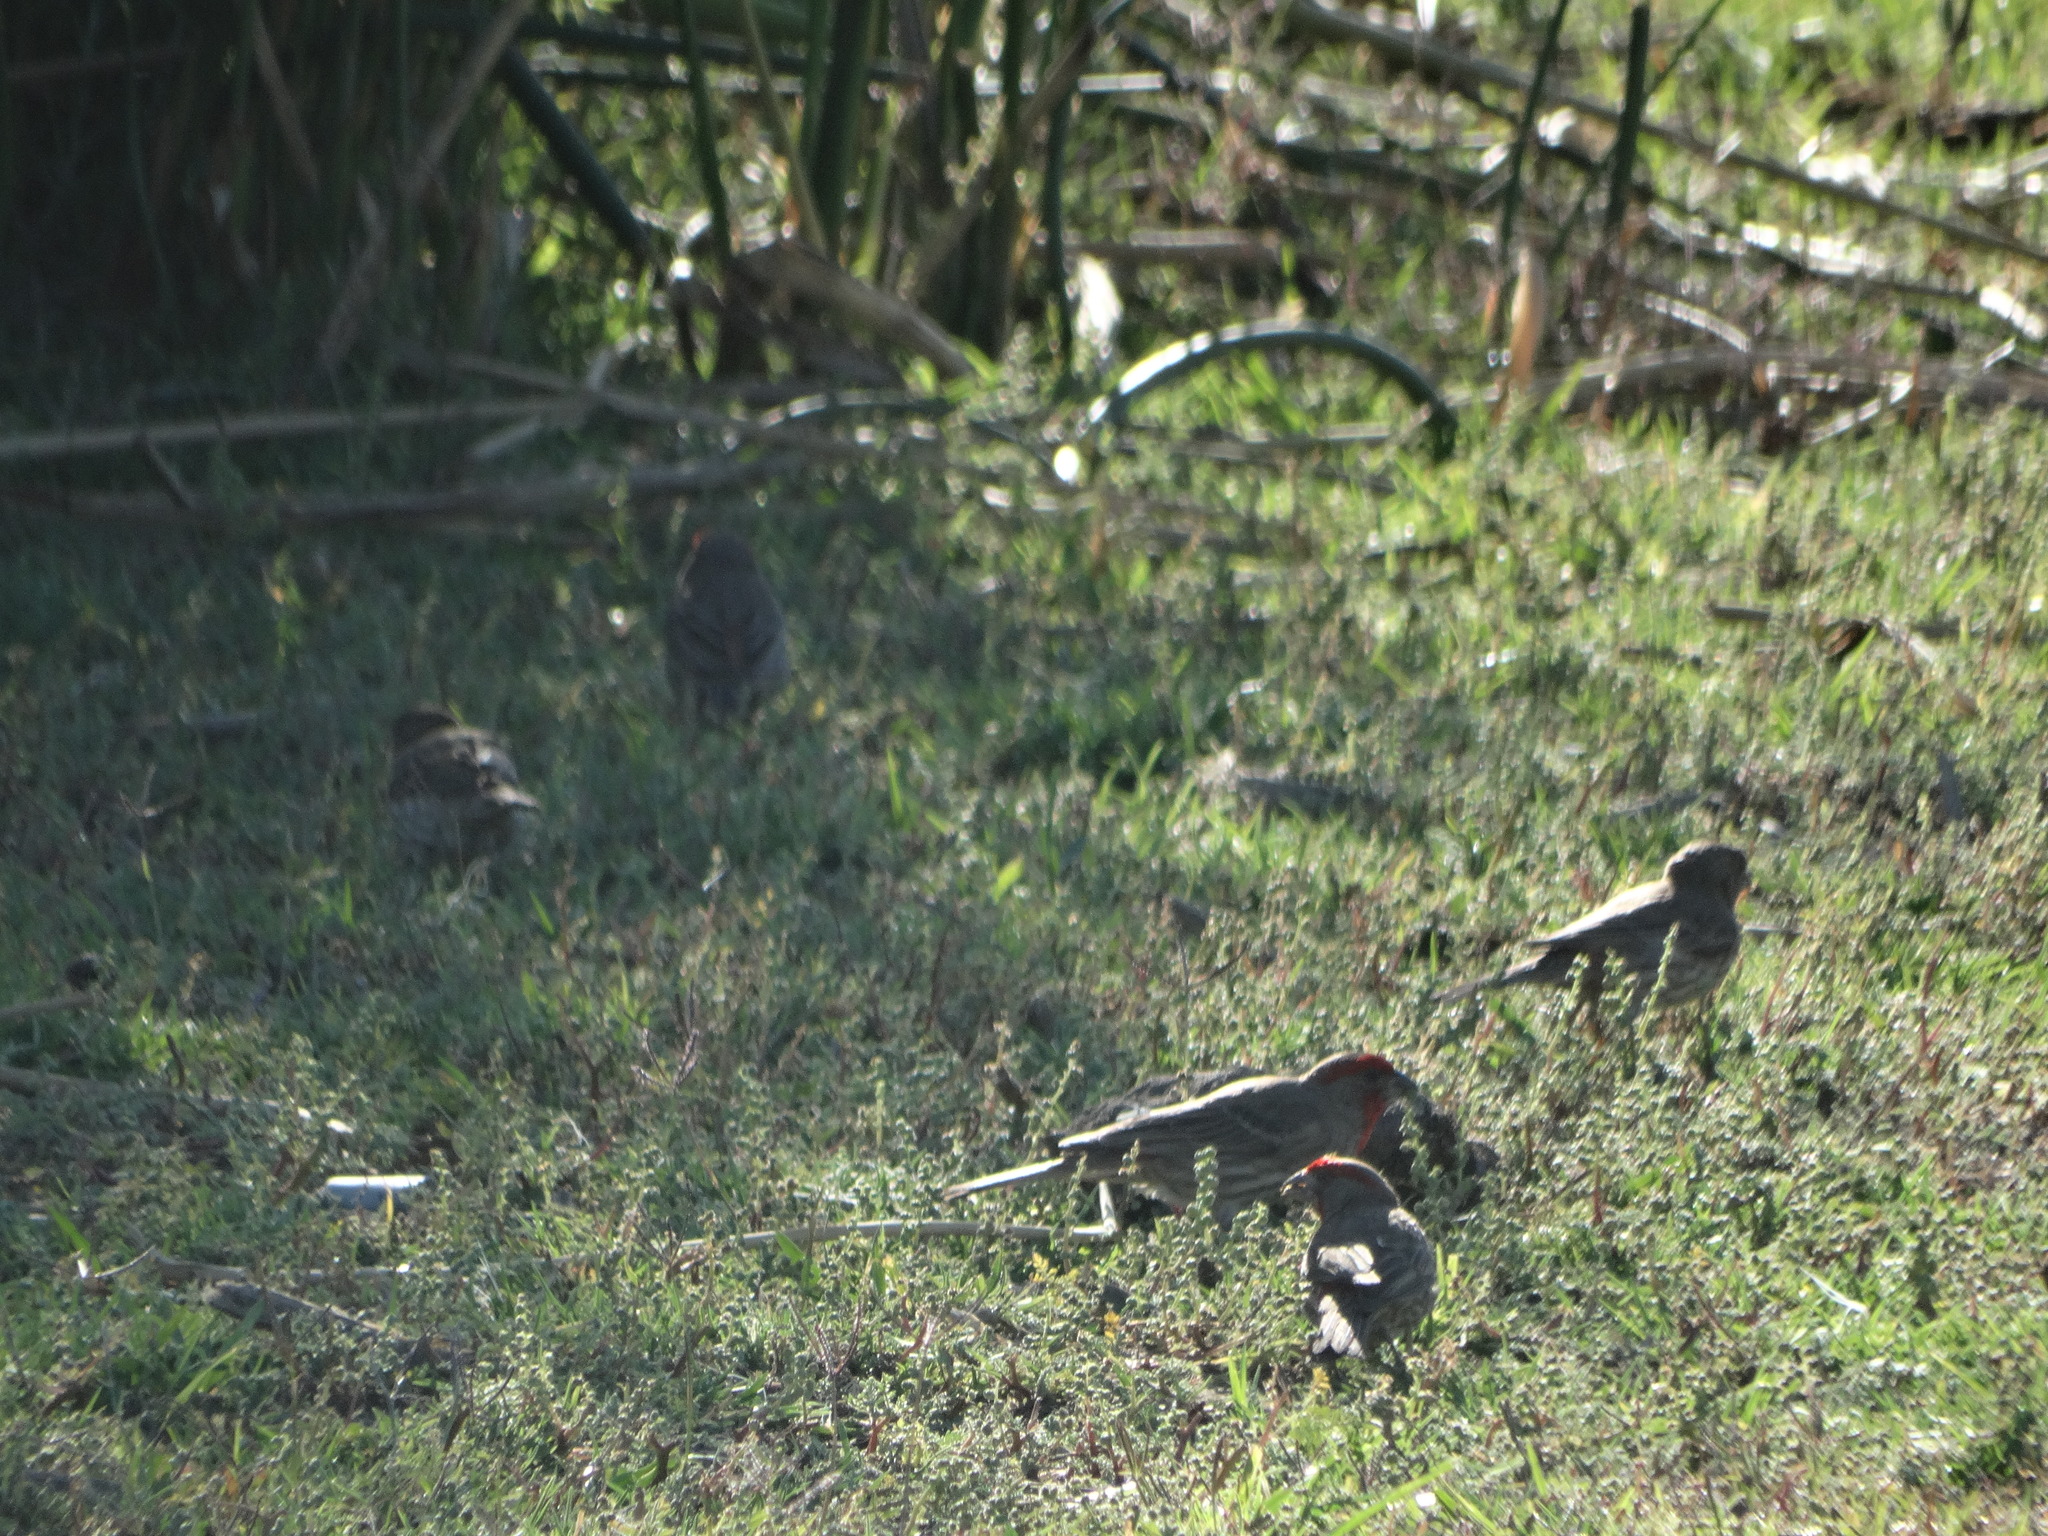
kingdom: Animalia
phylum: Chordata
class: Aves
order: Passeriformes
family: Fringillidae
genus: Haemorhous
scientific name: Haemorhous mexicanus
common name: House finch
